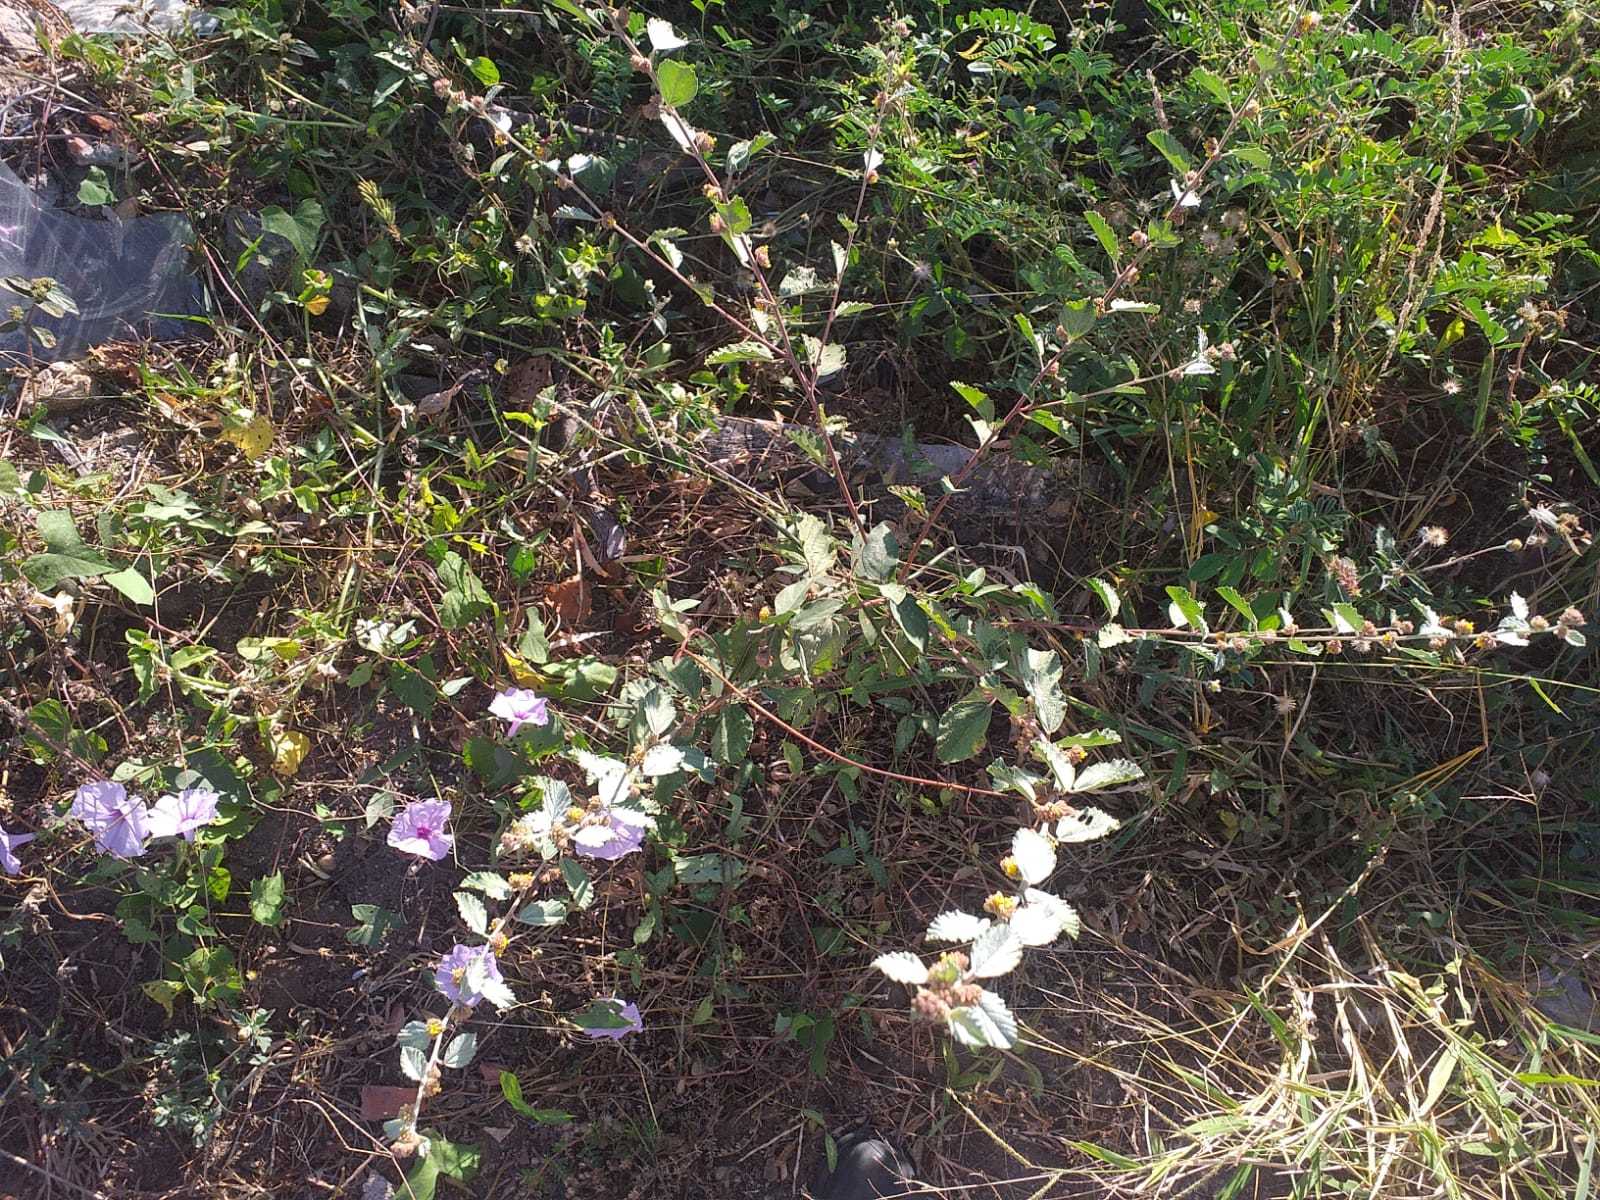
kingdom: Plantae
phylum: Tracheophyta
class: Magnoliopsida
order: Malvales
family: Malvaceae
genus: Waltheria
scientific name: Waltheria rotundifolia
